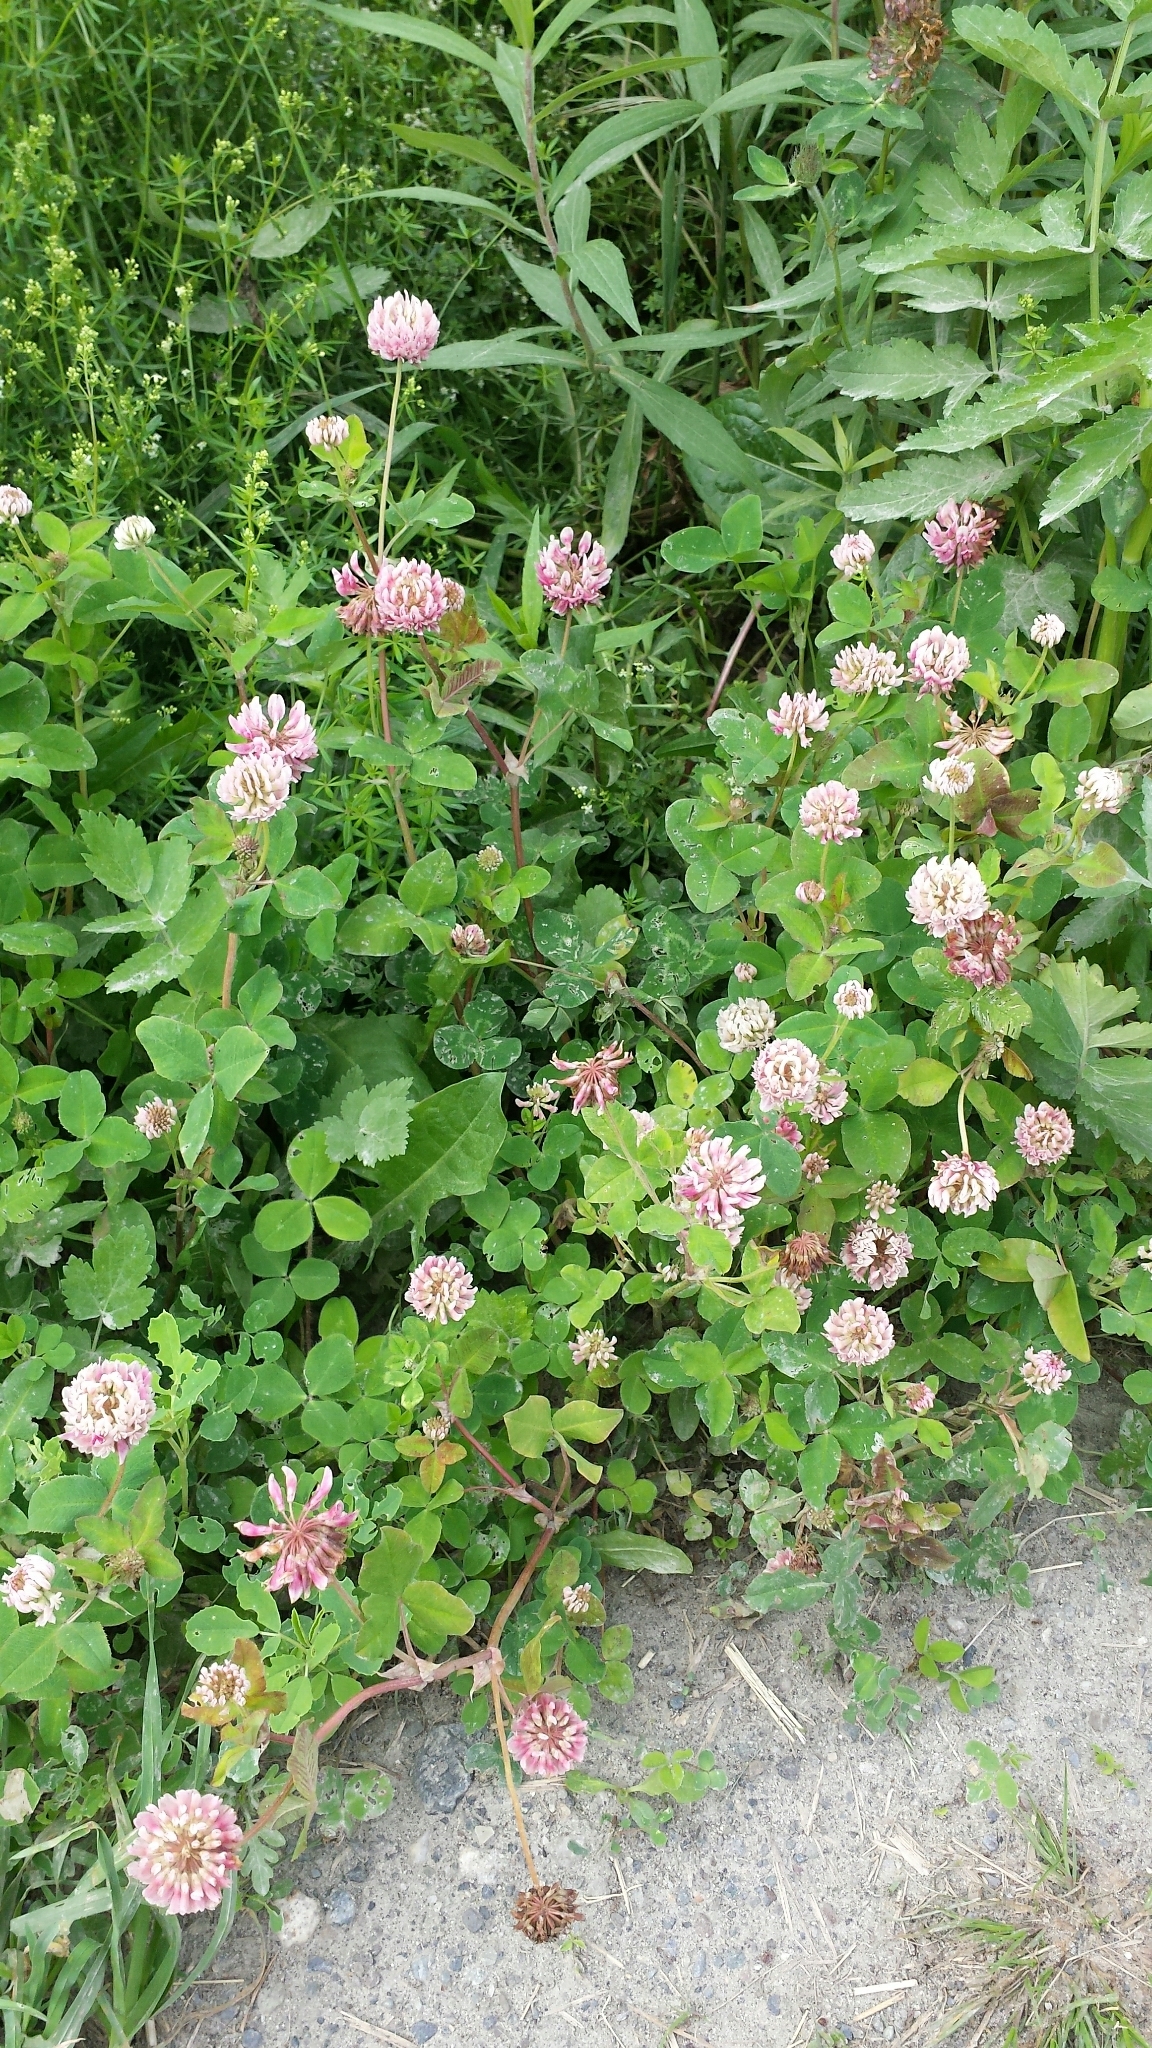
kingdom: Plantae
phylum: Tracheophyta
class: Magnoliopsida
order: Fabales
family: Fabaceae
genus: Trifolium
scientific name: Trifolium hybridum
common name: Alsike clover
